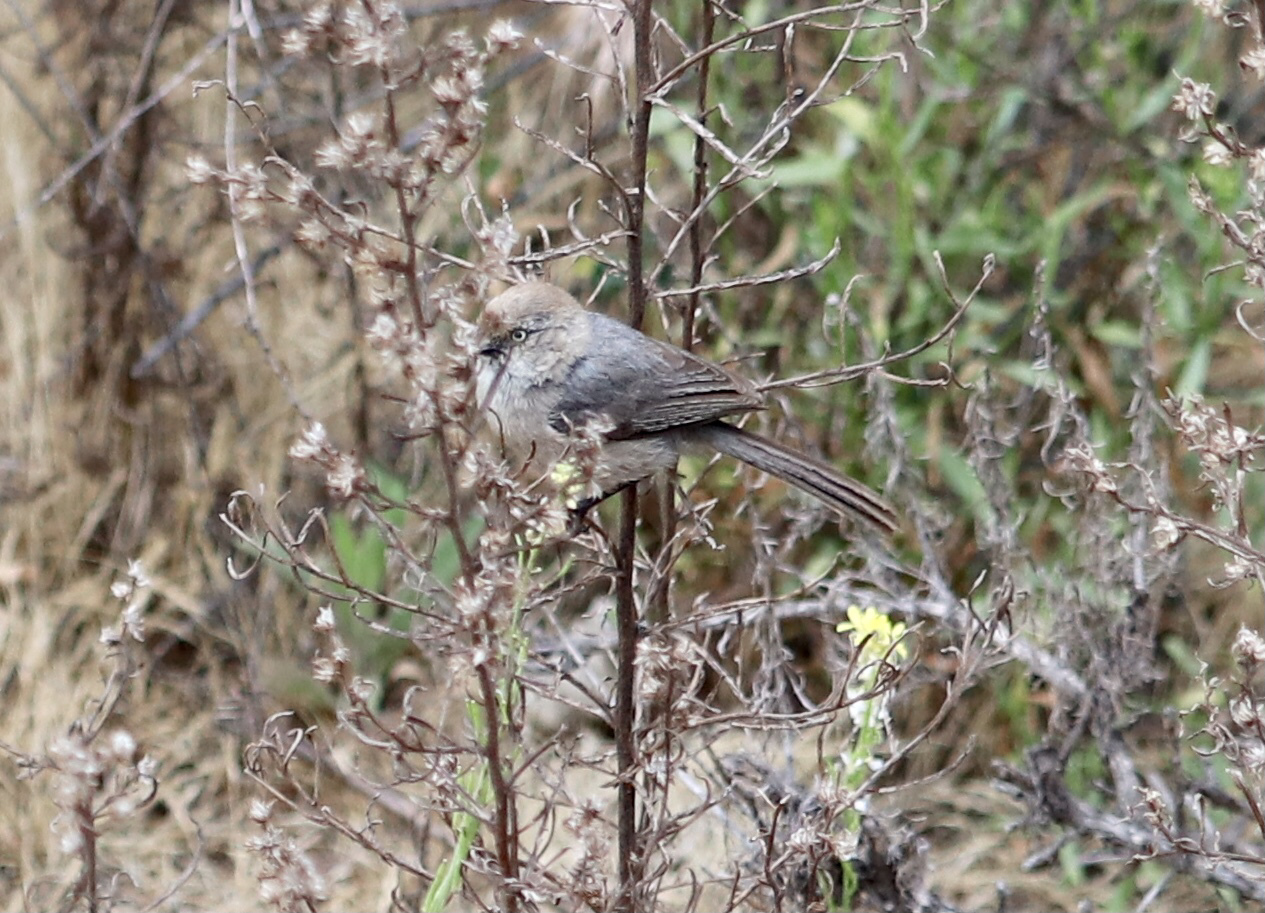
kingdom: Animalia
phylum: Chordata
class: Aves
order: Passeriformes
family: Aegithalidae
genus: Psaltriparus
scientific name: Psaltriparus minimus
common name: American bushtit
